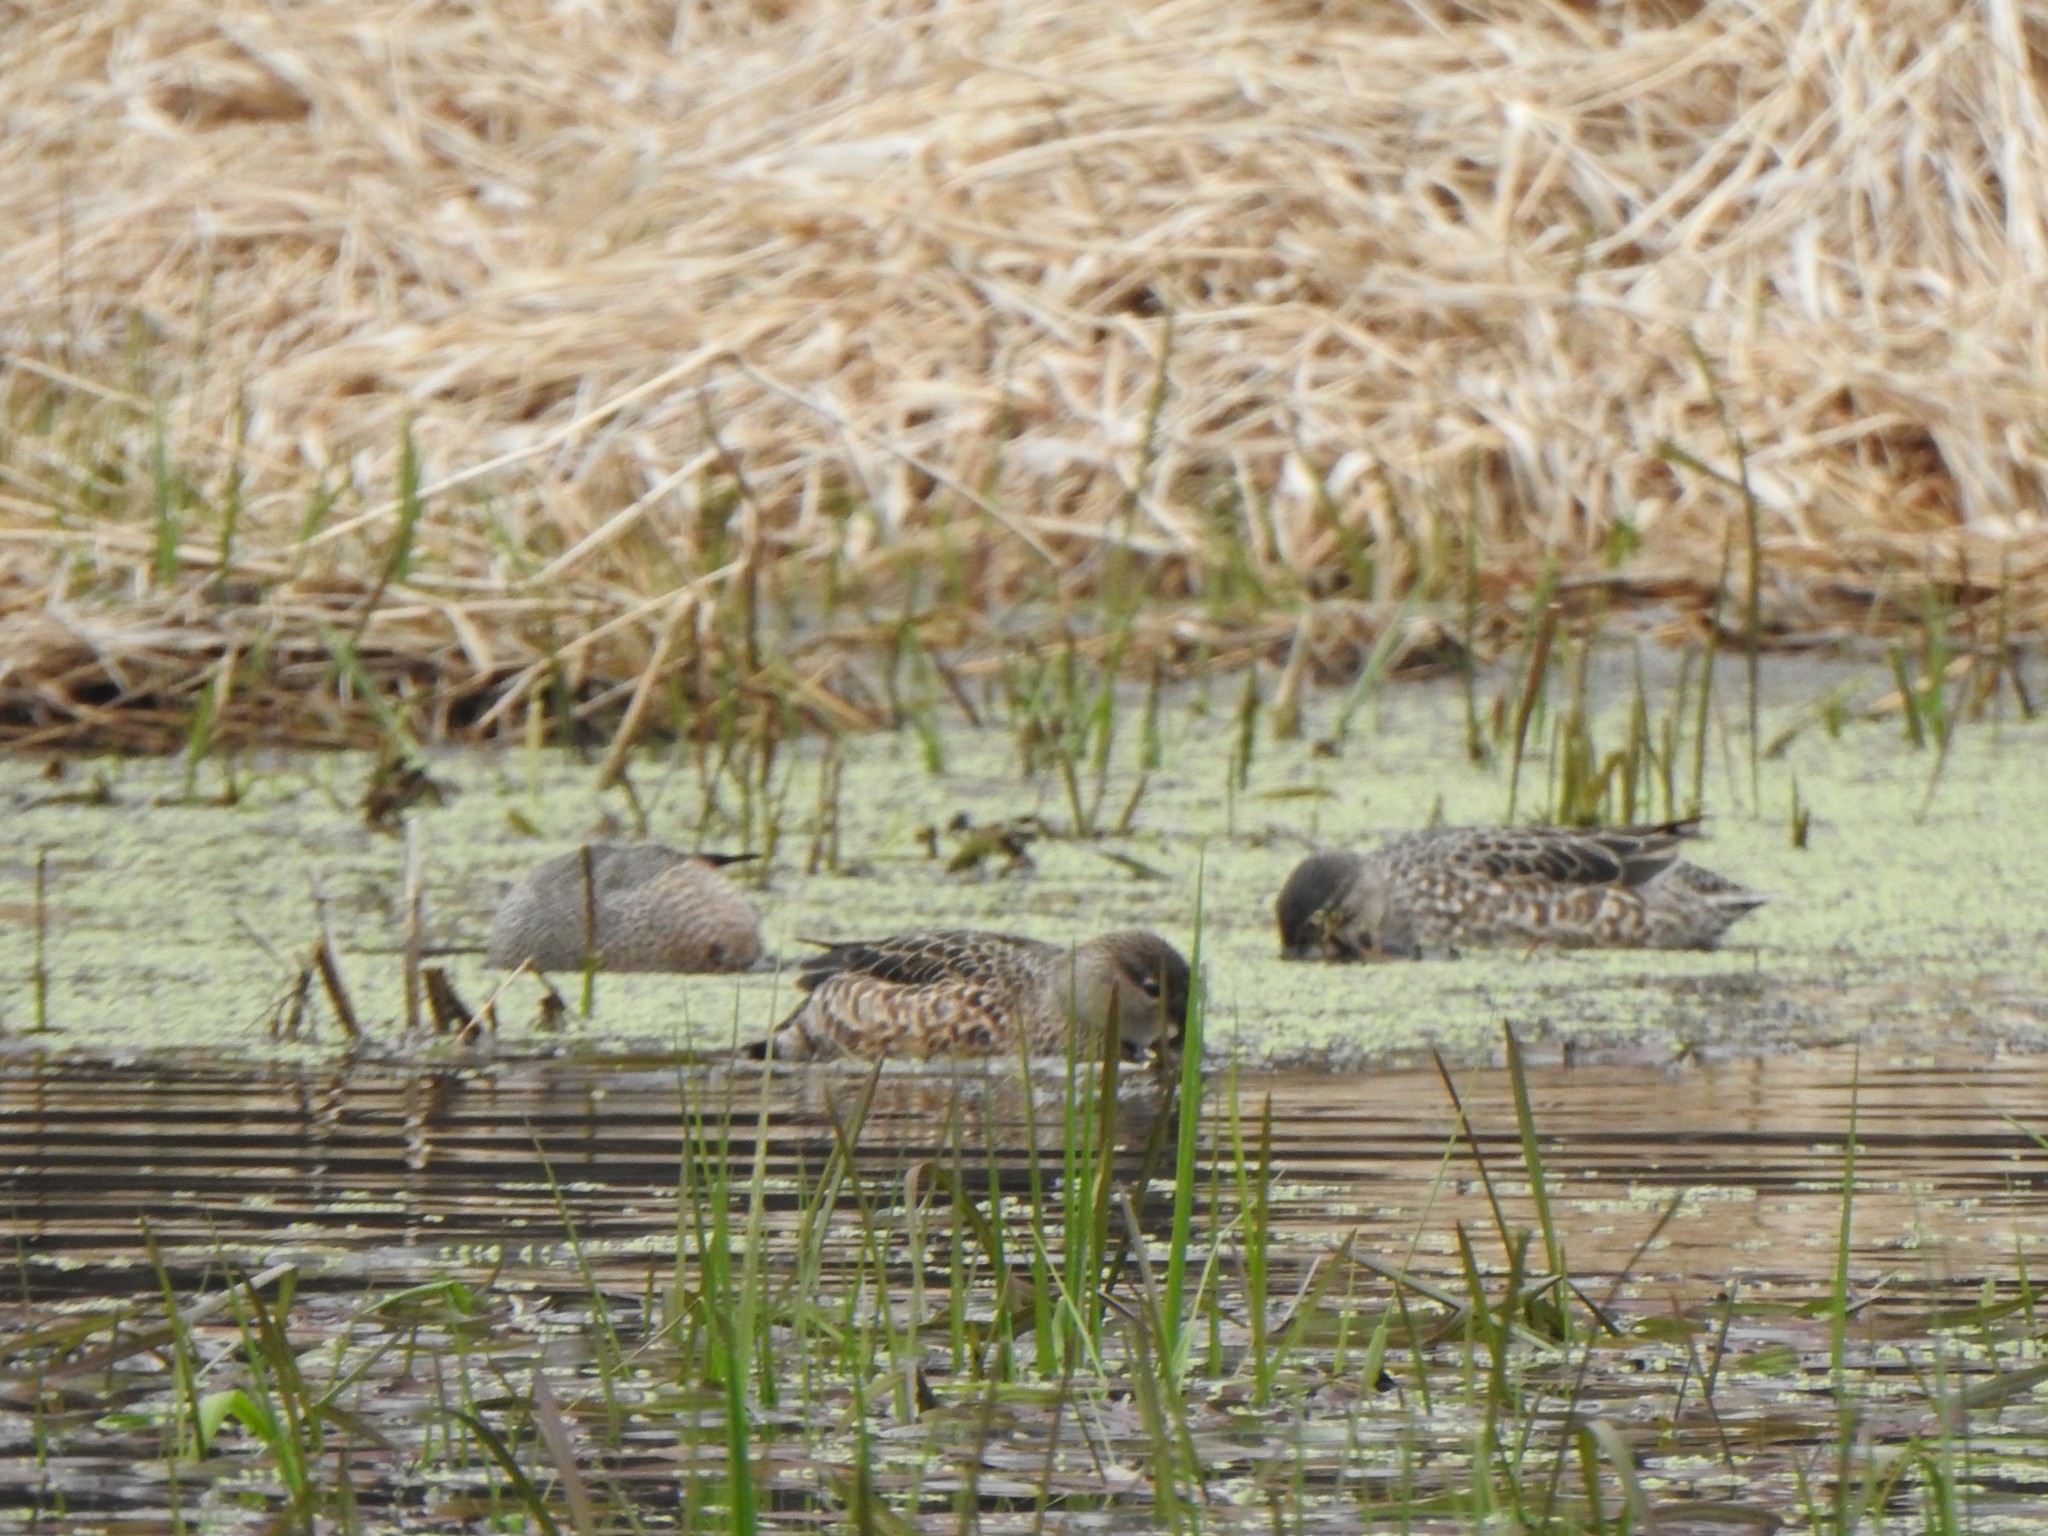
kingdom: Animalia
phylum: Chordata
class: Aves
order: Anseriformes
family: Anatidae
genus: Spatula
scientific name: Spatula discors
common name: Blue-winged teal
